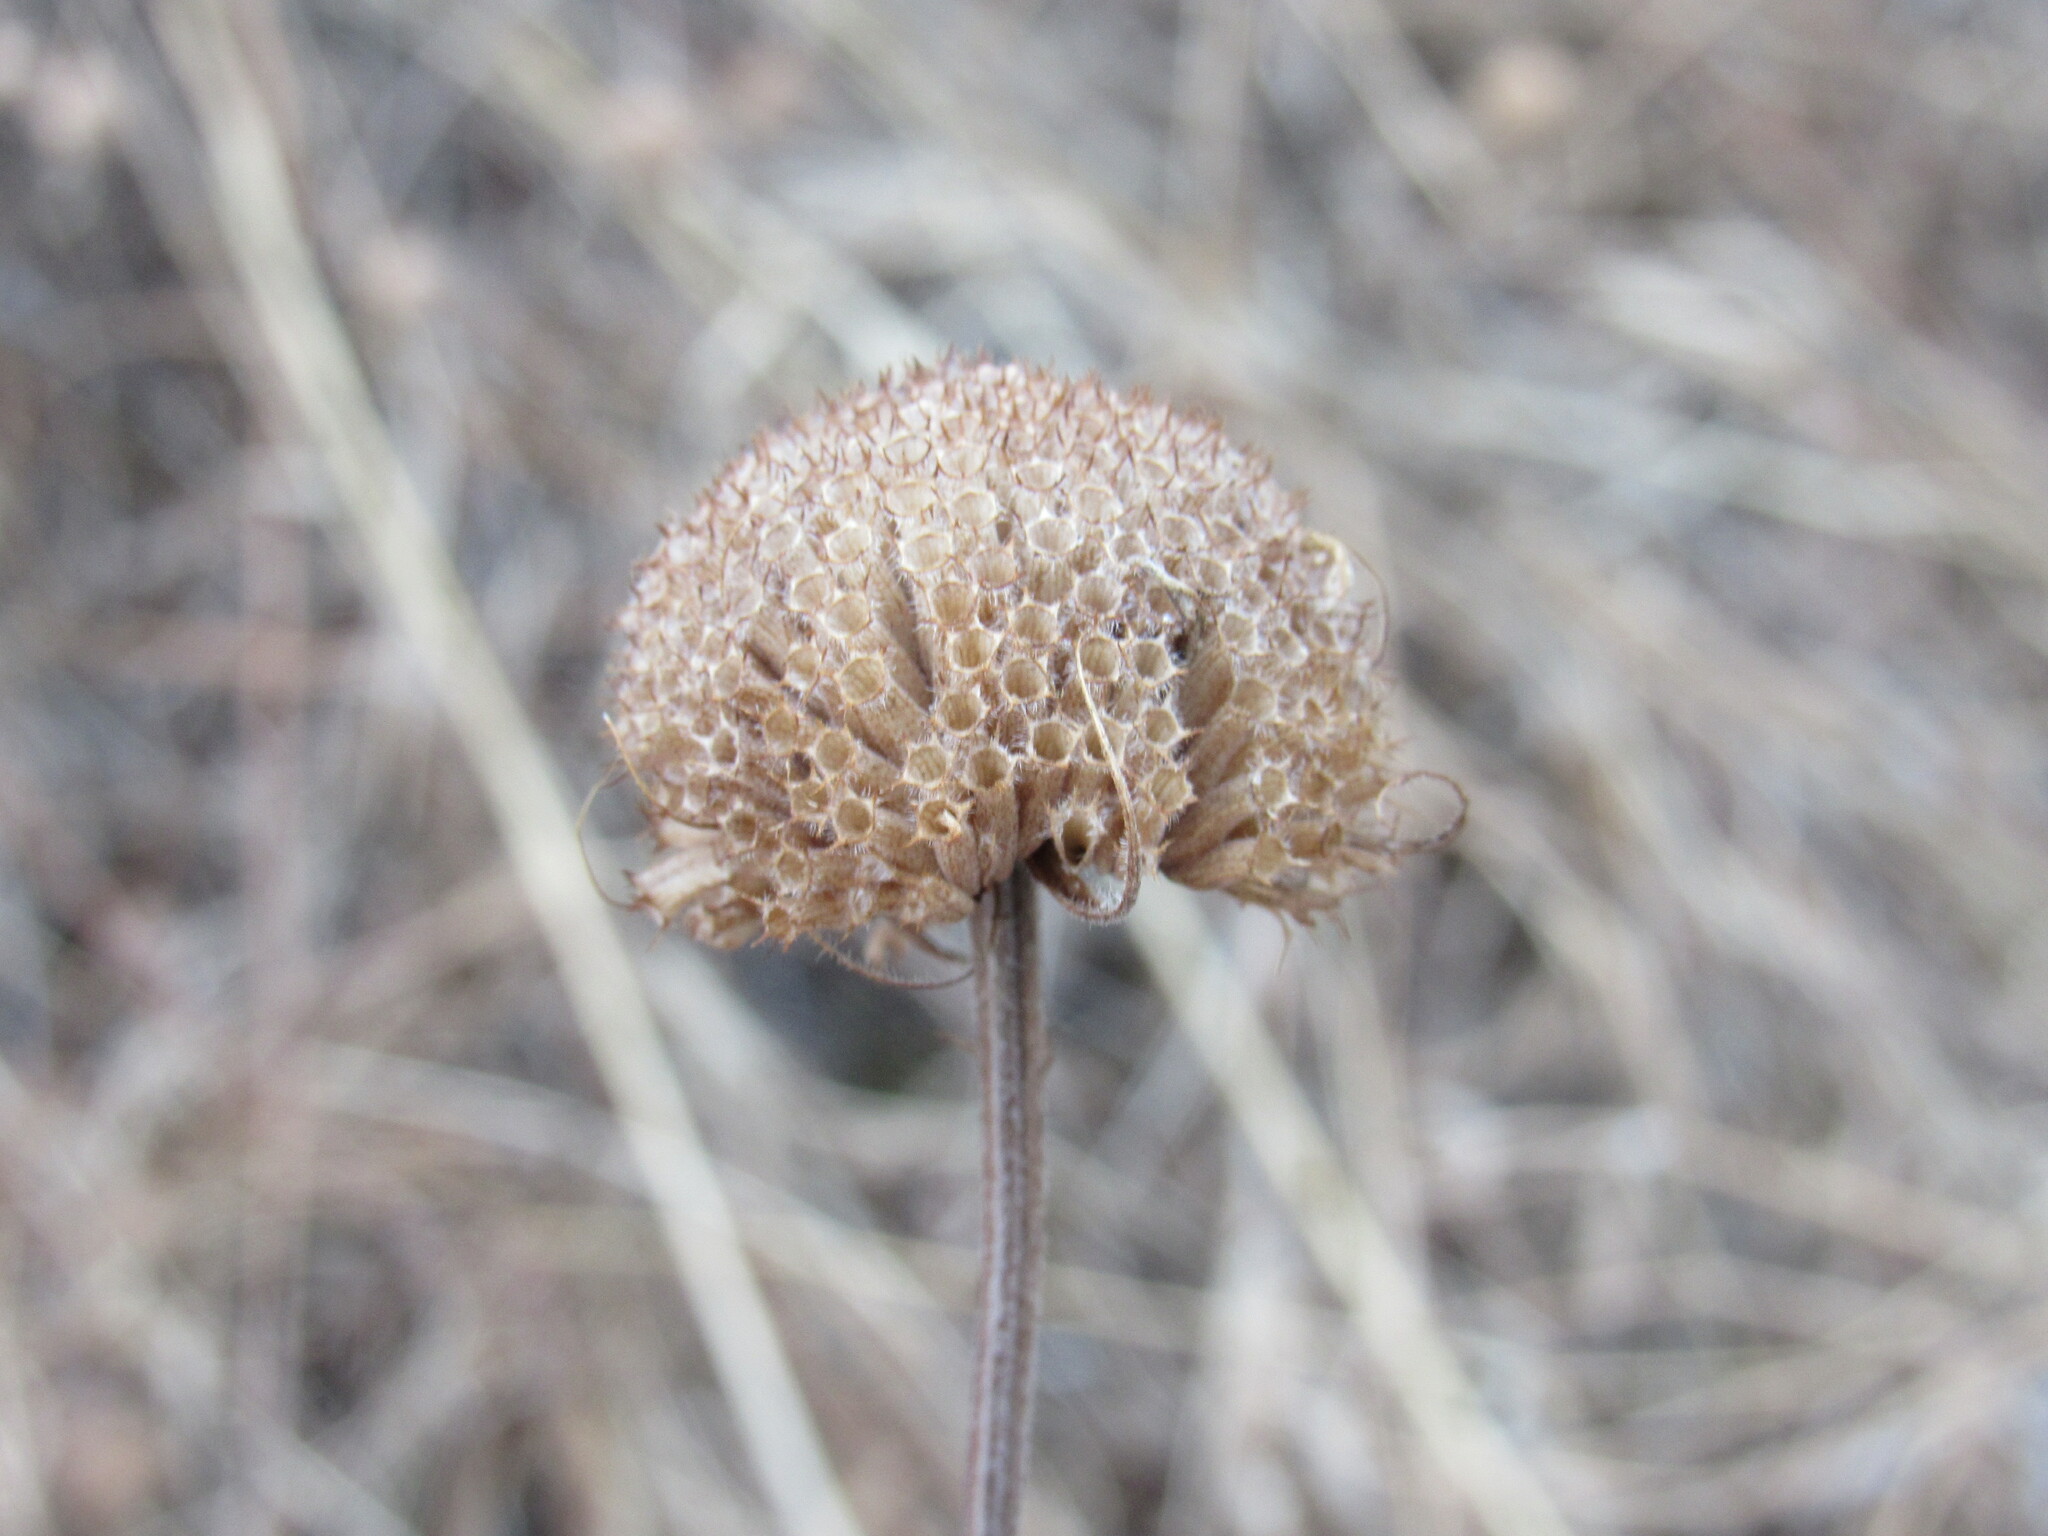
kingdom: Plantae
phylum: Tracheophyta
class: Magnoliopsida
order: Lamiales
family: Lamiaceae
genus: Monarda
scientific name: Monarda fistulosa
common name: Purple beebalm
